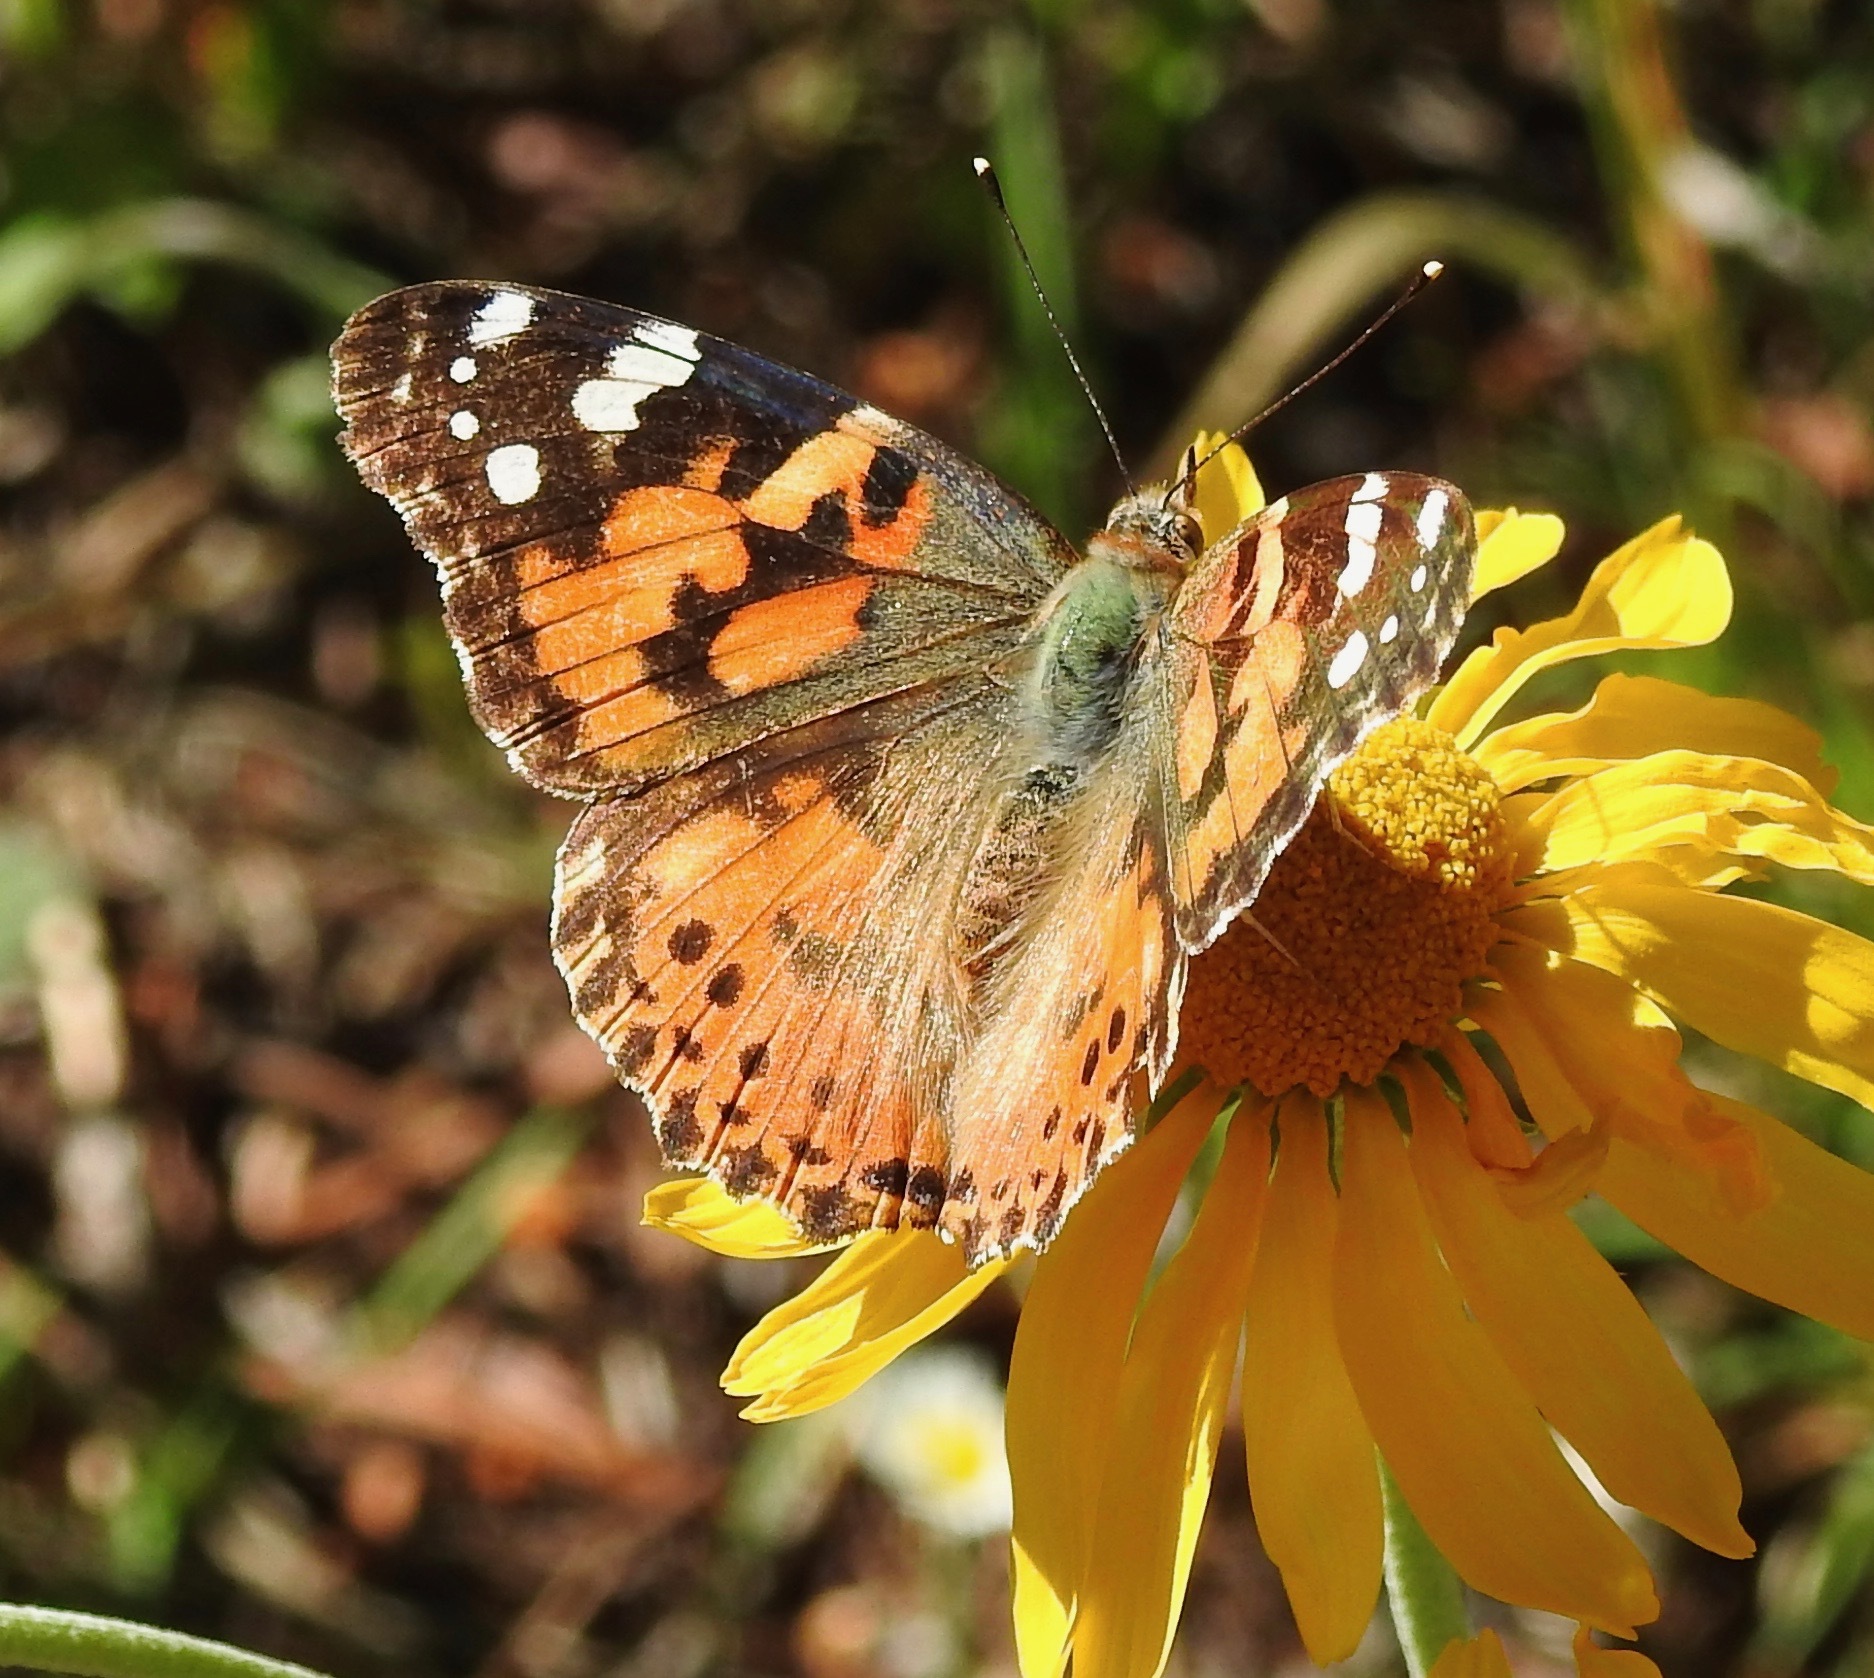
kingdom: Animalia
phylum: Arthropoda
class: Insecta
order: Lepidoptera
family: Nymphalidae
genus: Vanessa
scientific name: Vanessa cardui
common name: Painted lady
